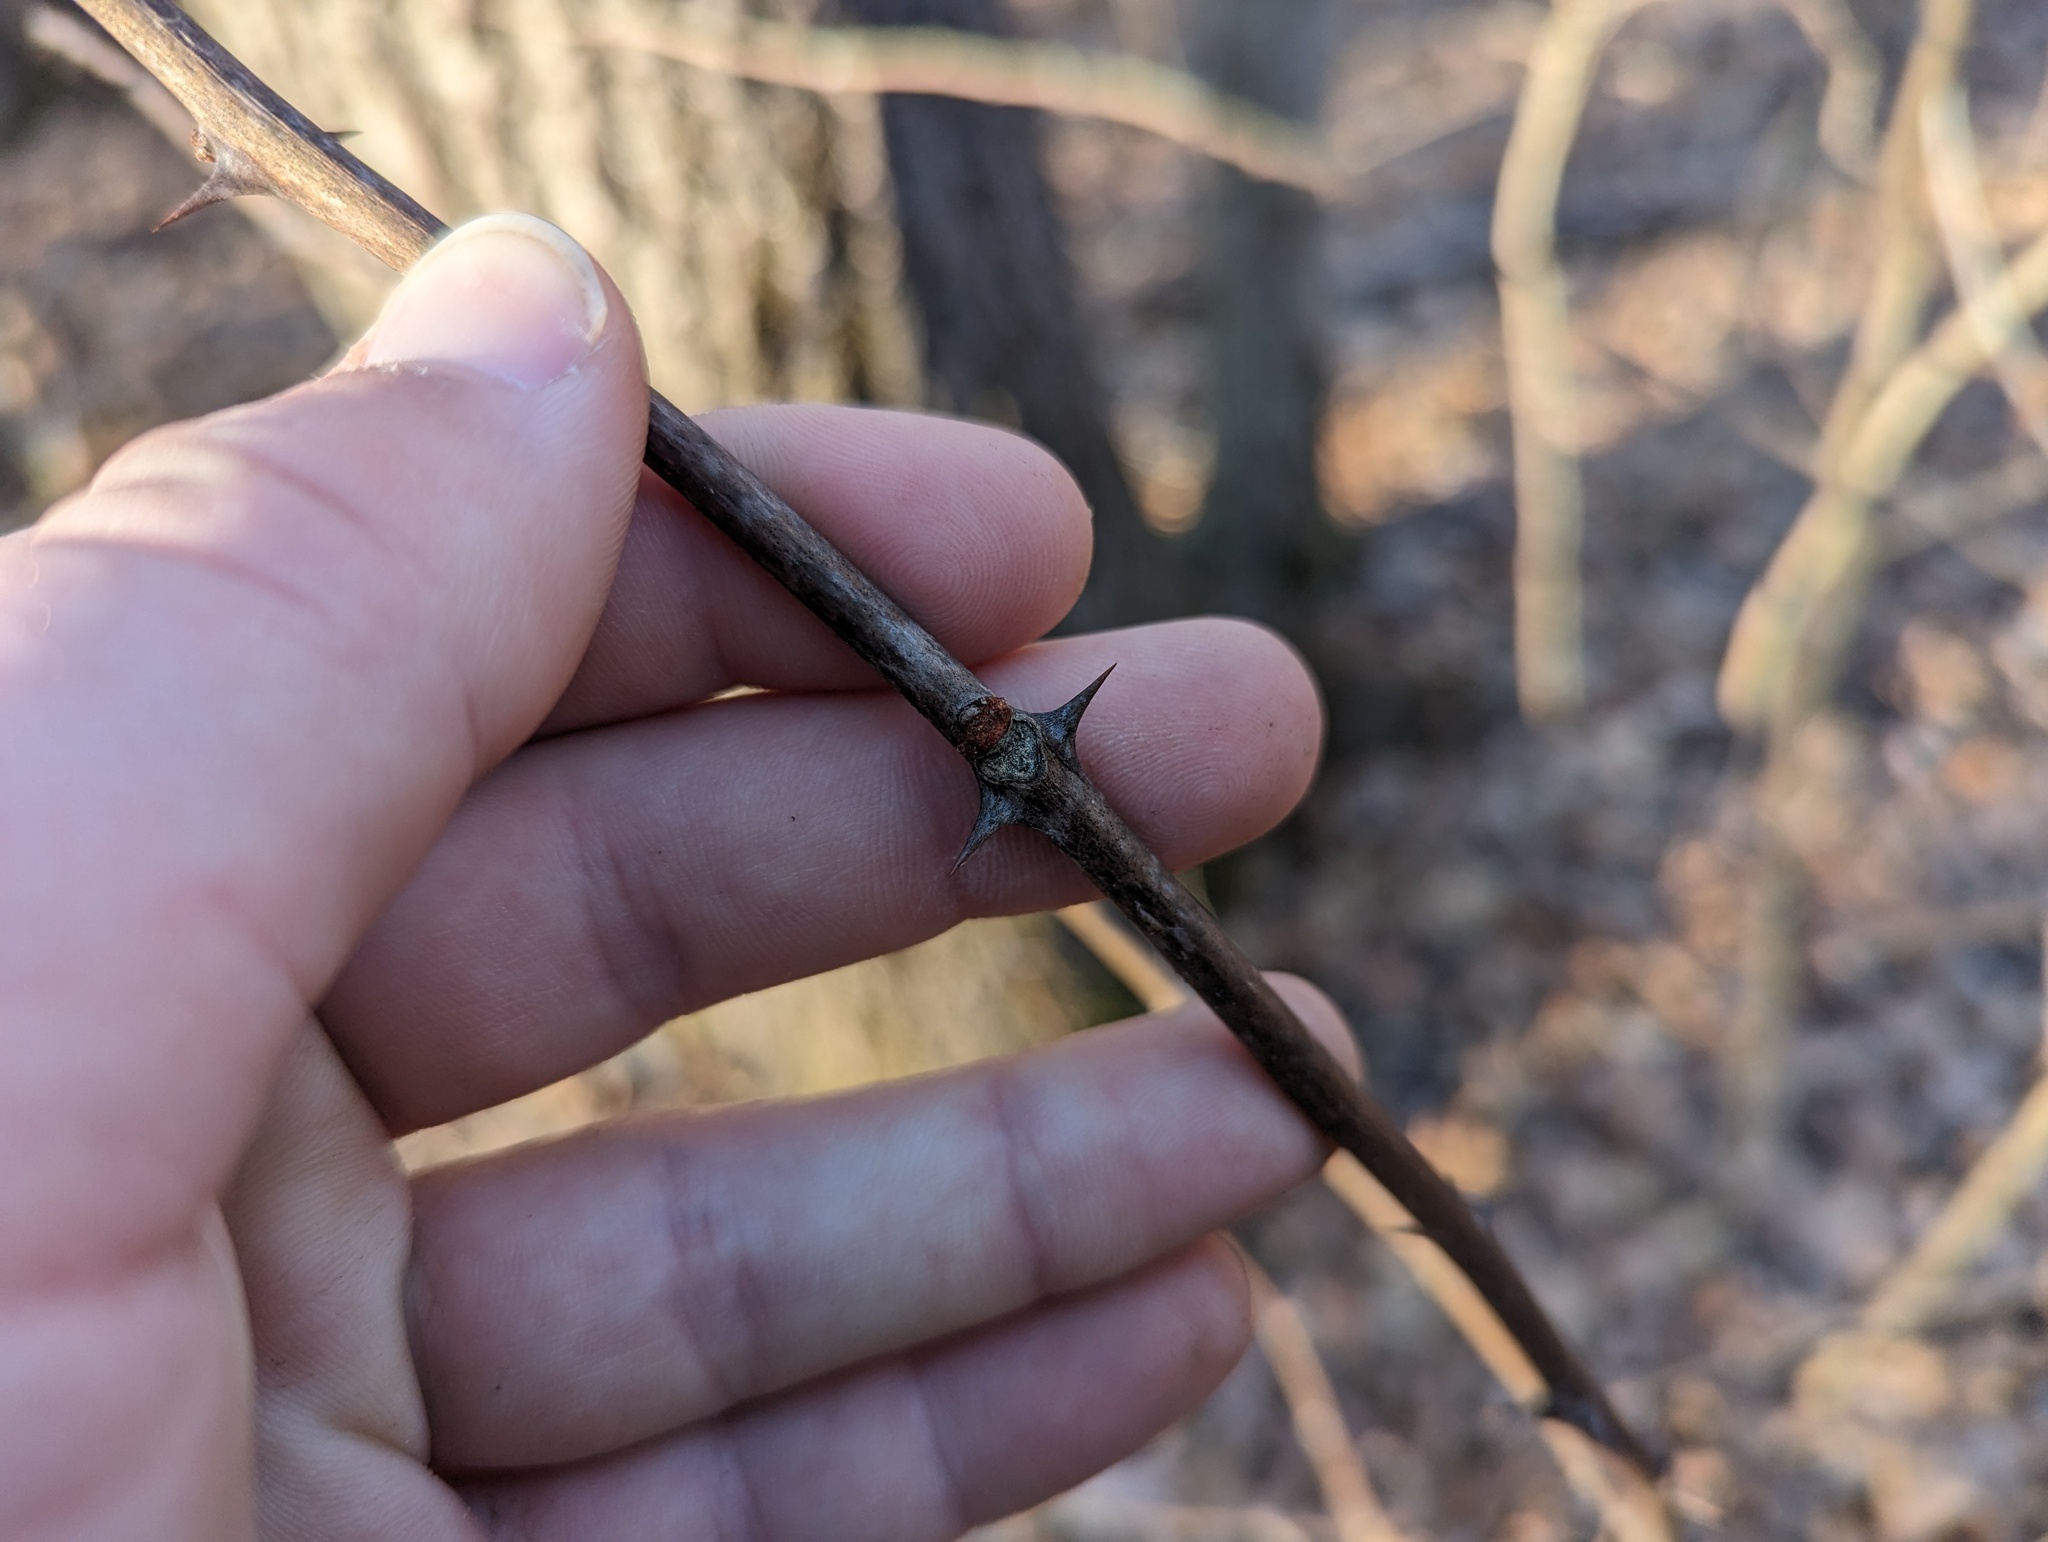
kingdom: Plantae
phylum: Tracheophyta
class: Magnoliopsida
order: Sapindales
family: Rutaceae
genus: Zanthoxylum
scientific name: Zanthoxylum americanum
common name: Northern prickly-ash
